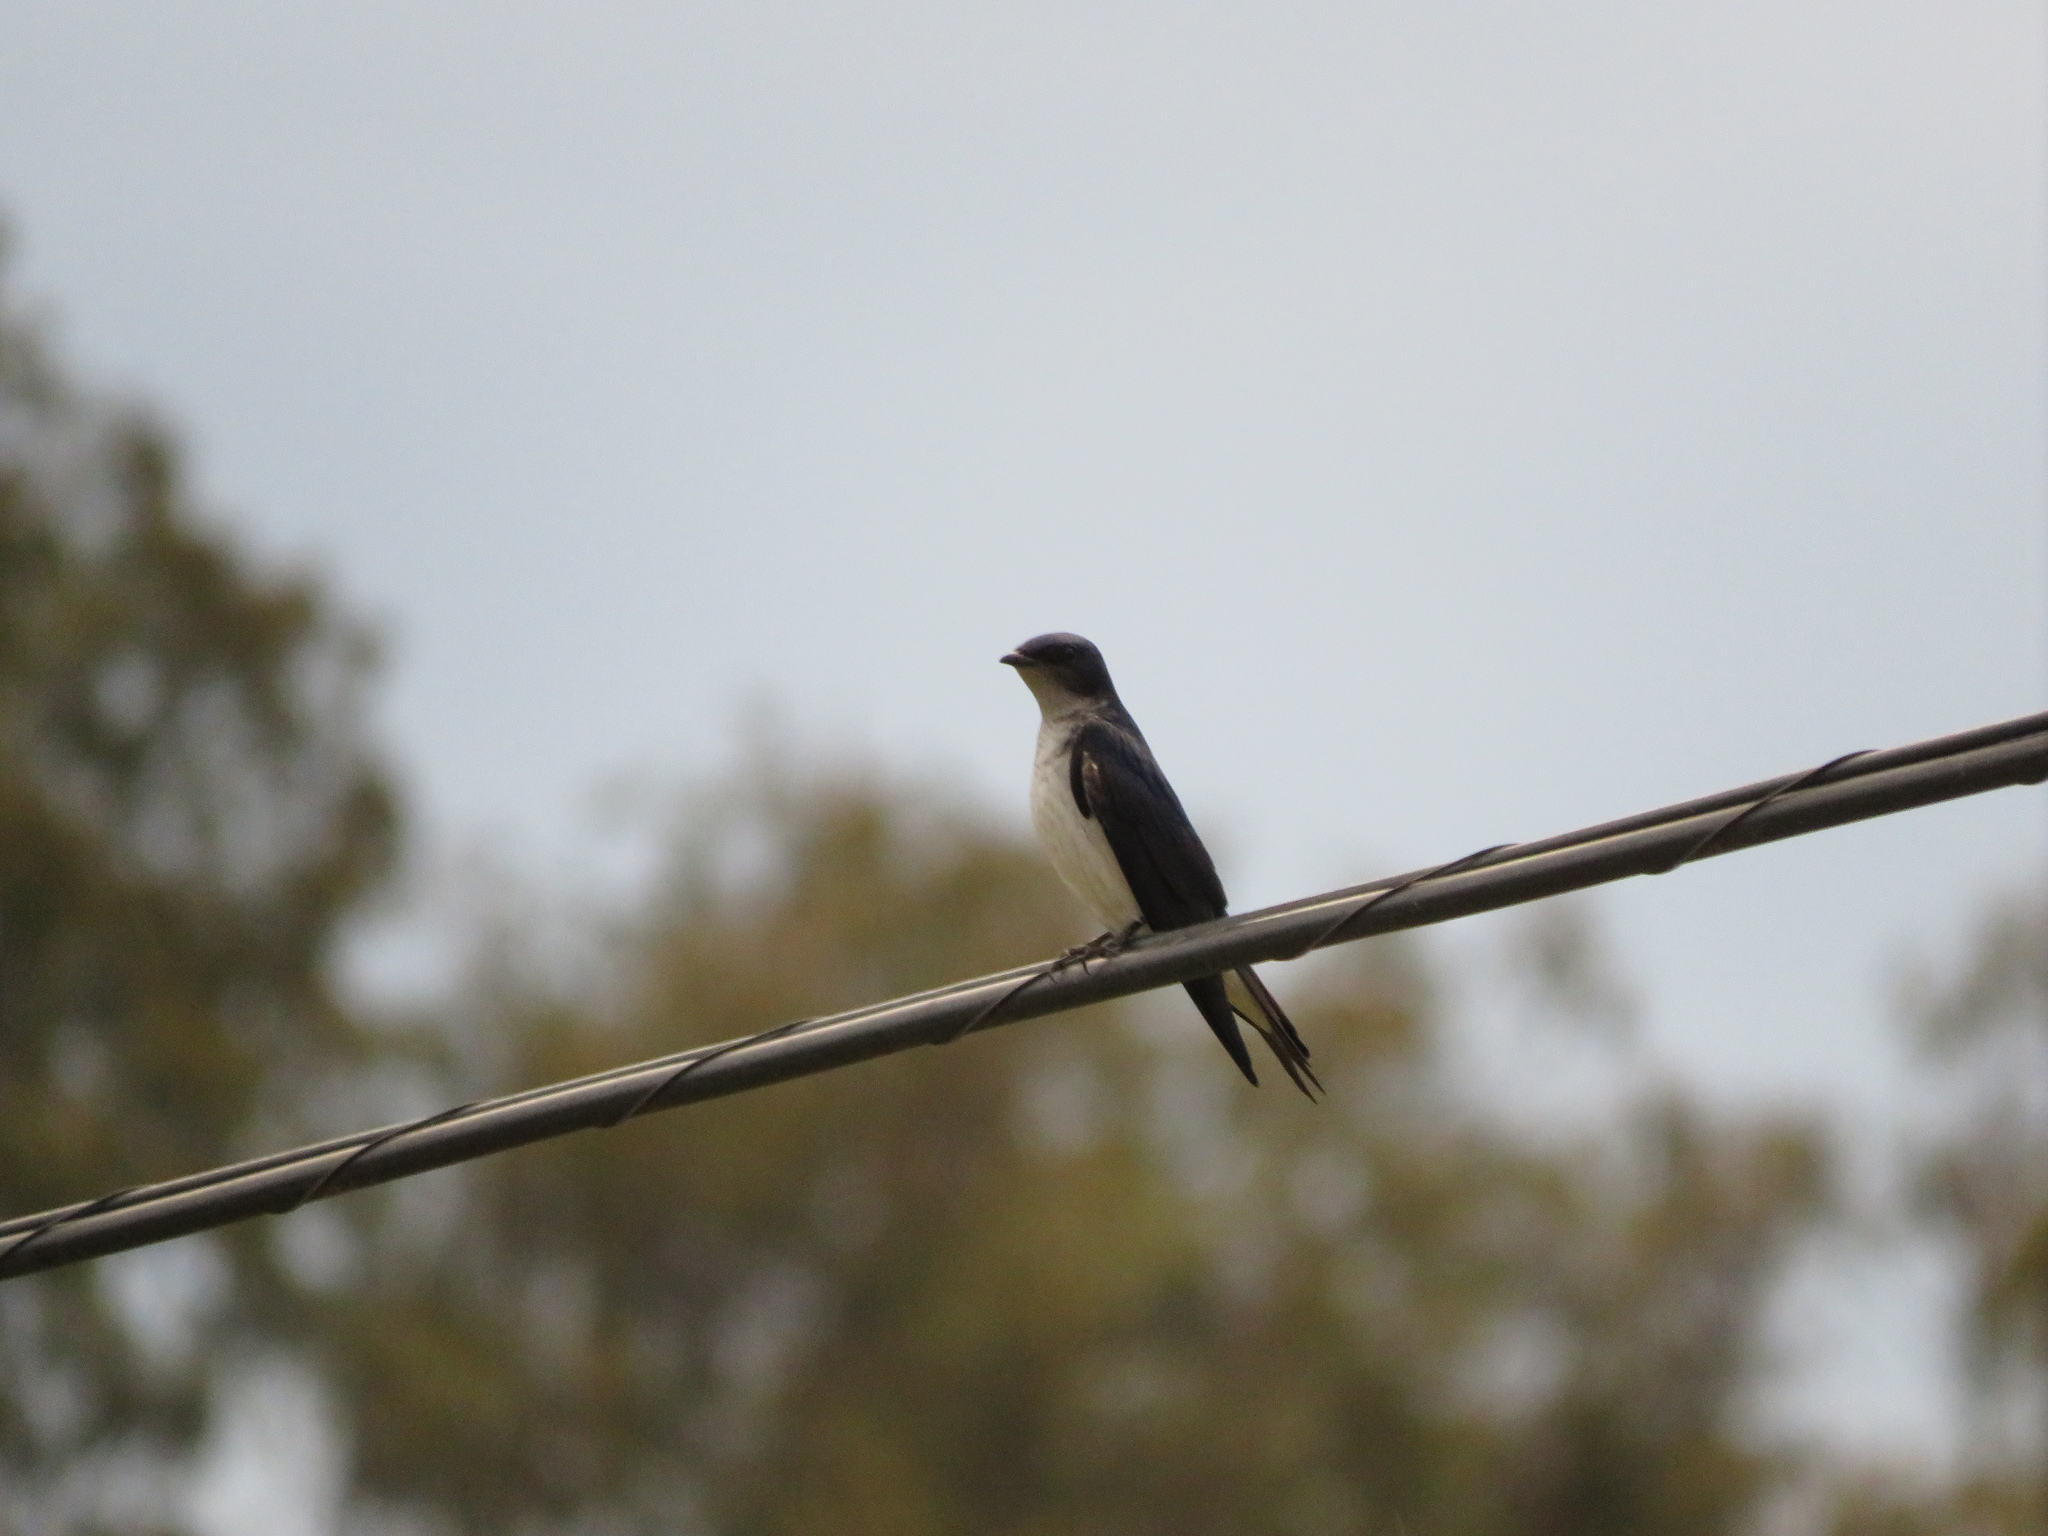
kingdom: Animalia
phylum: Chordata
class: Aves
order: Passeriformes
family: Hirundinidae
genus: Progne
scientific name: Progne chalybea
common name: Grey-breasted martin
